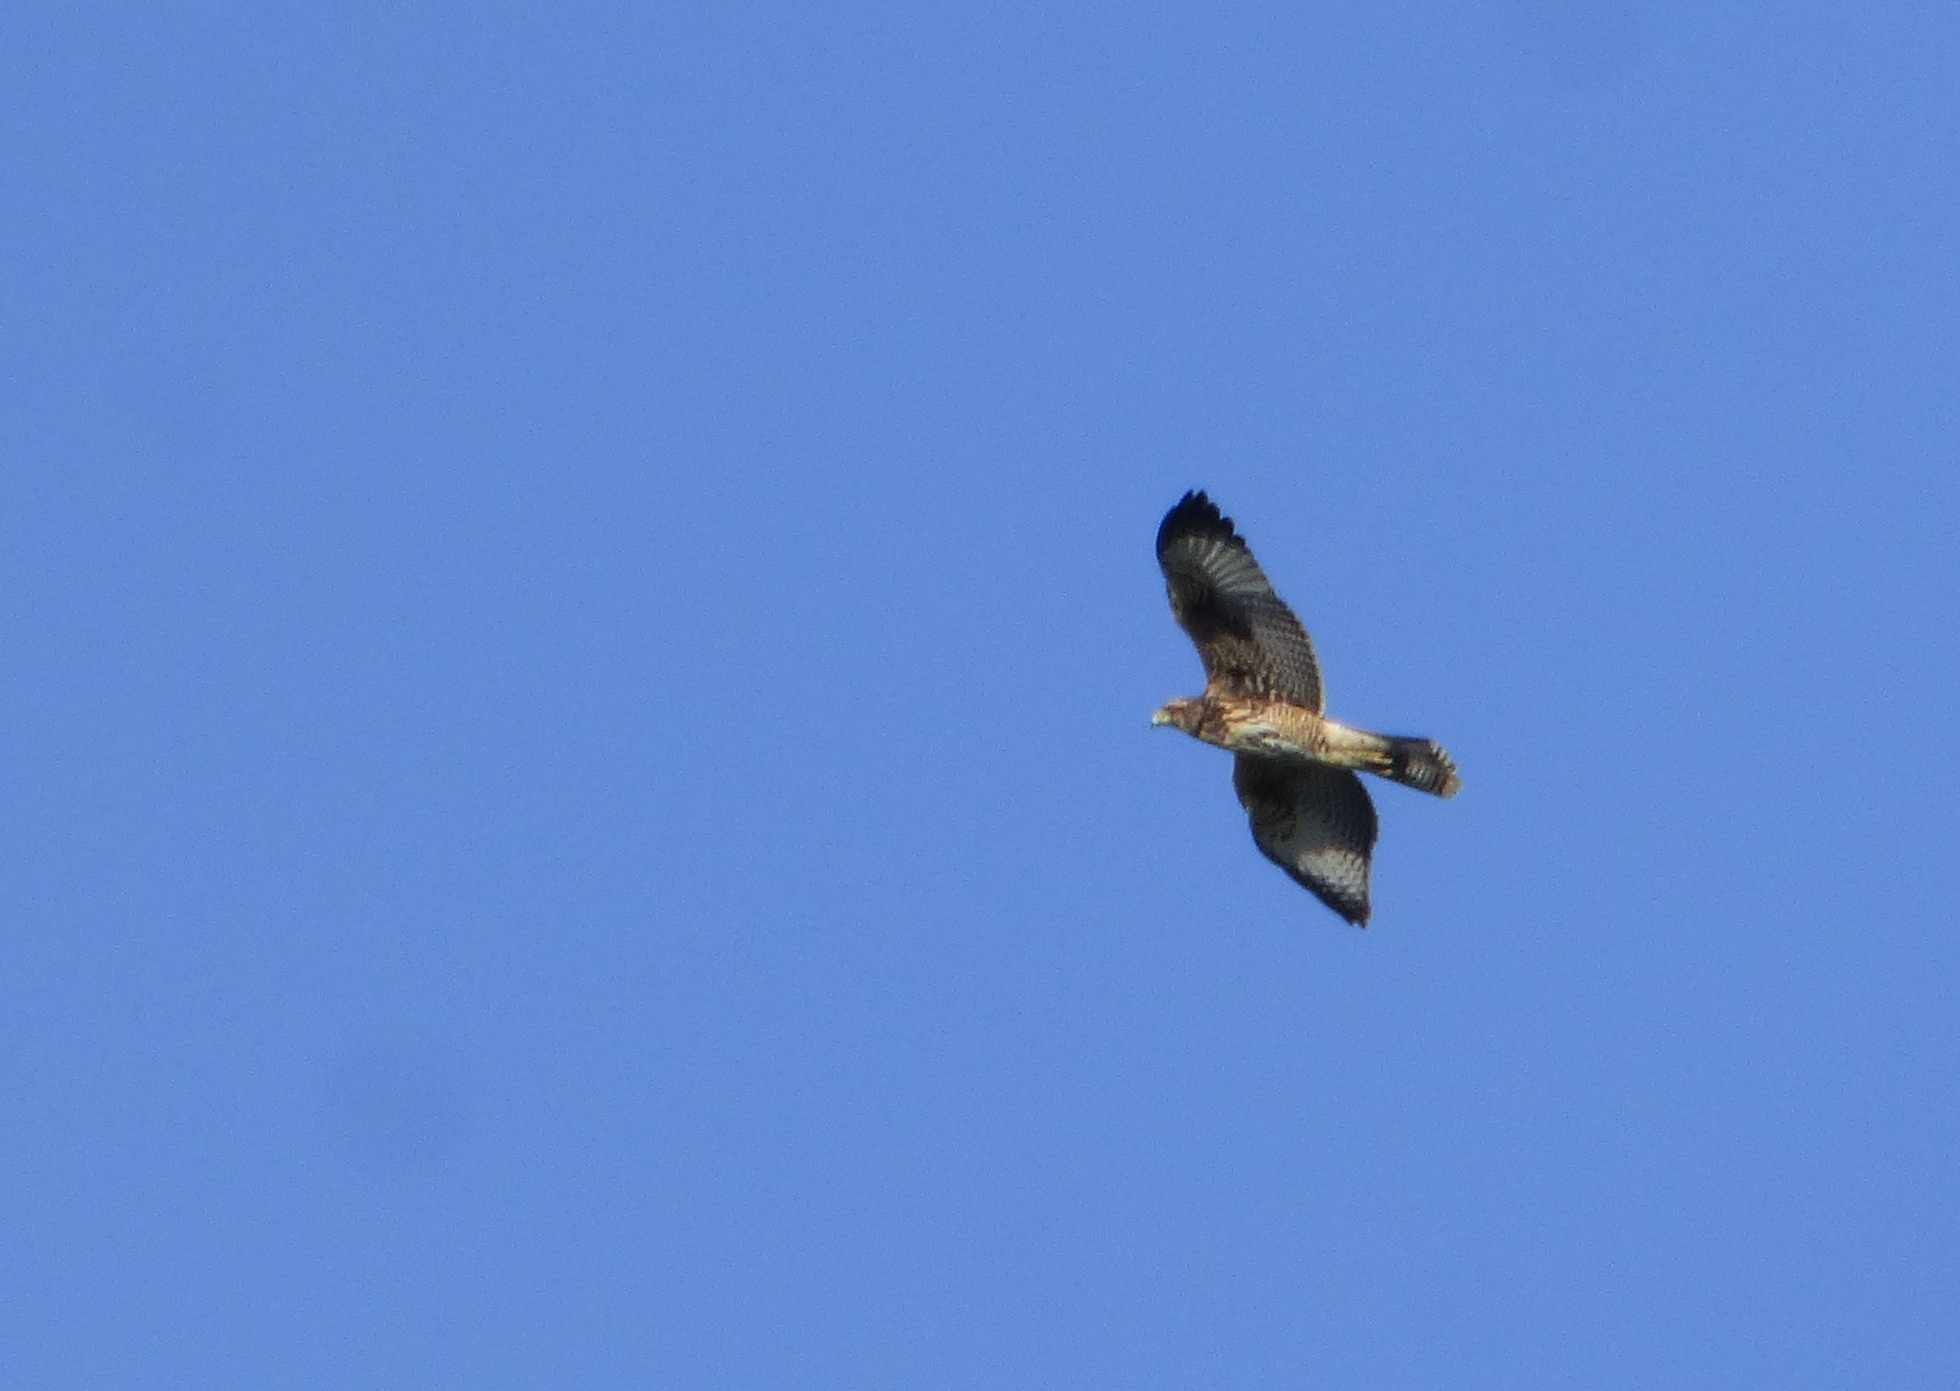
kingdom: Animalia
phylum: Chordata
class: Aves
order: Accipitriformes
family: Accipitridae
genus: Parabuteo
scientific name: Parabuteo unicinctus
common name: Harris's hawk
